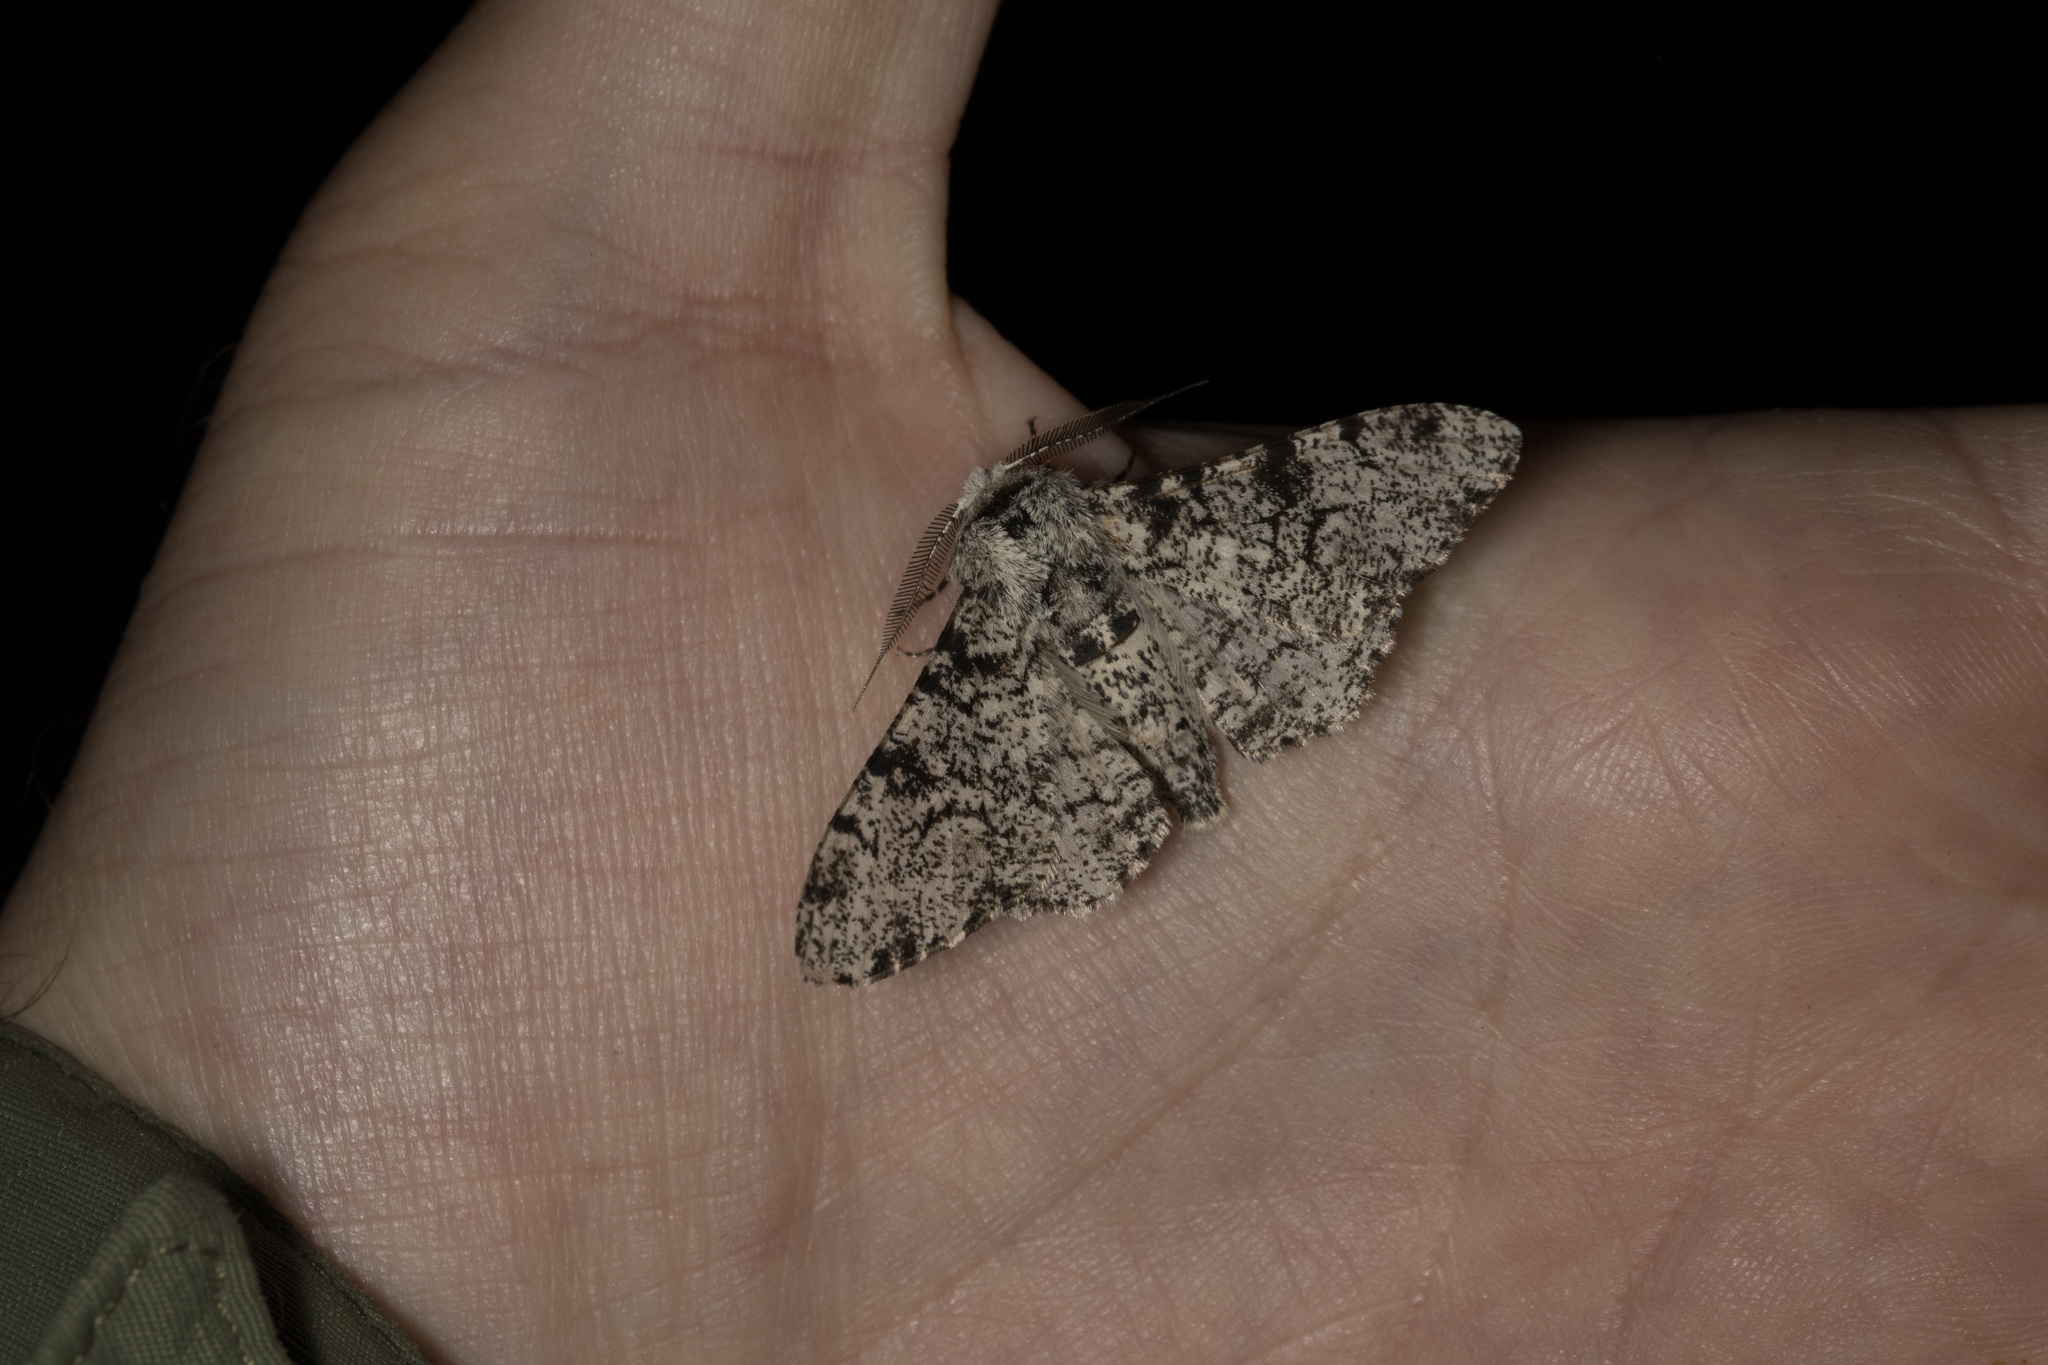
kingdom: Animalia
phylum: Arthropoda
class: Insecta
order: Lepidoptera
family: Geometridae
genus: Biston
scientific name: Biston betularia
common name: Peppered moth
